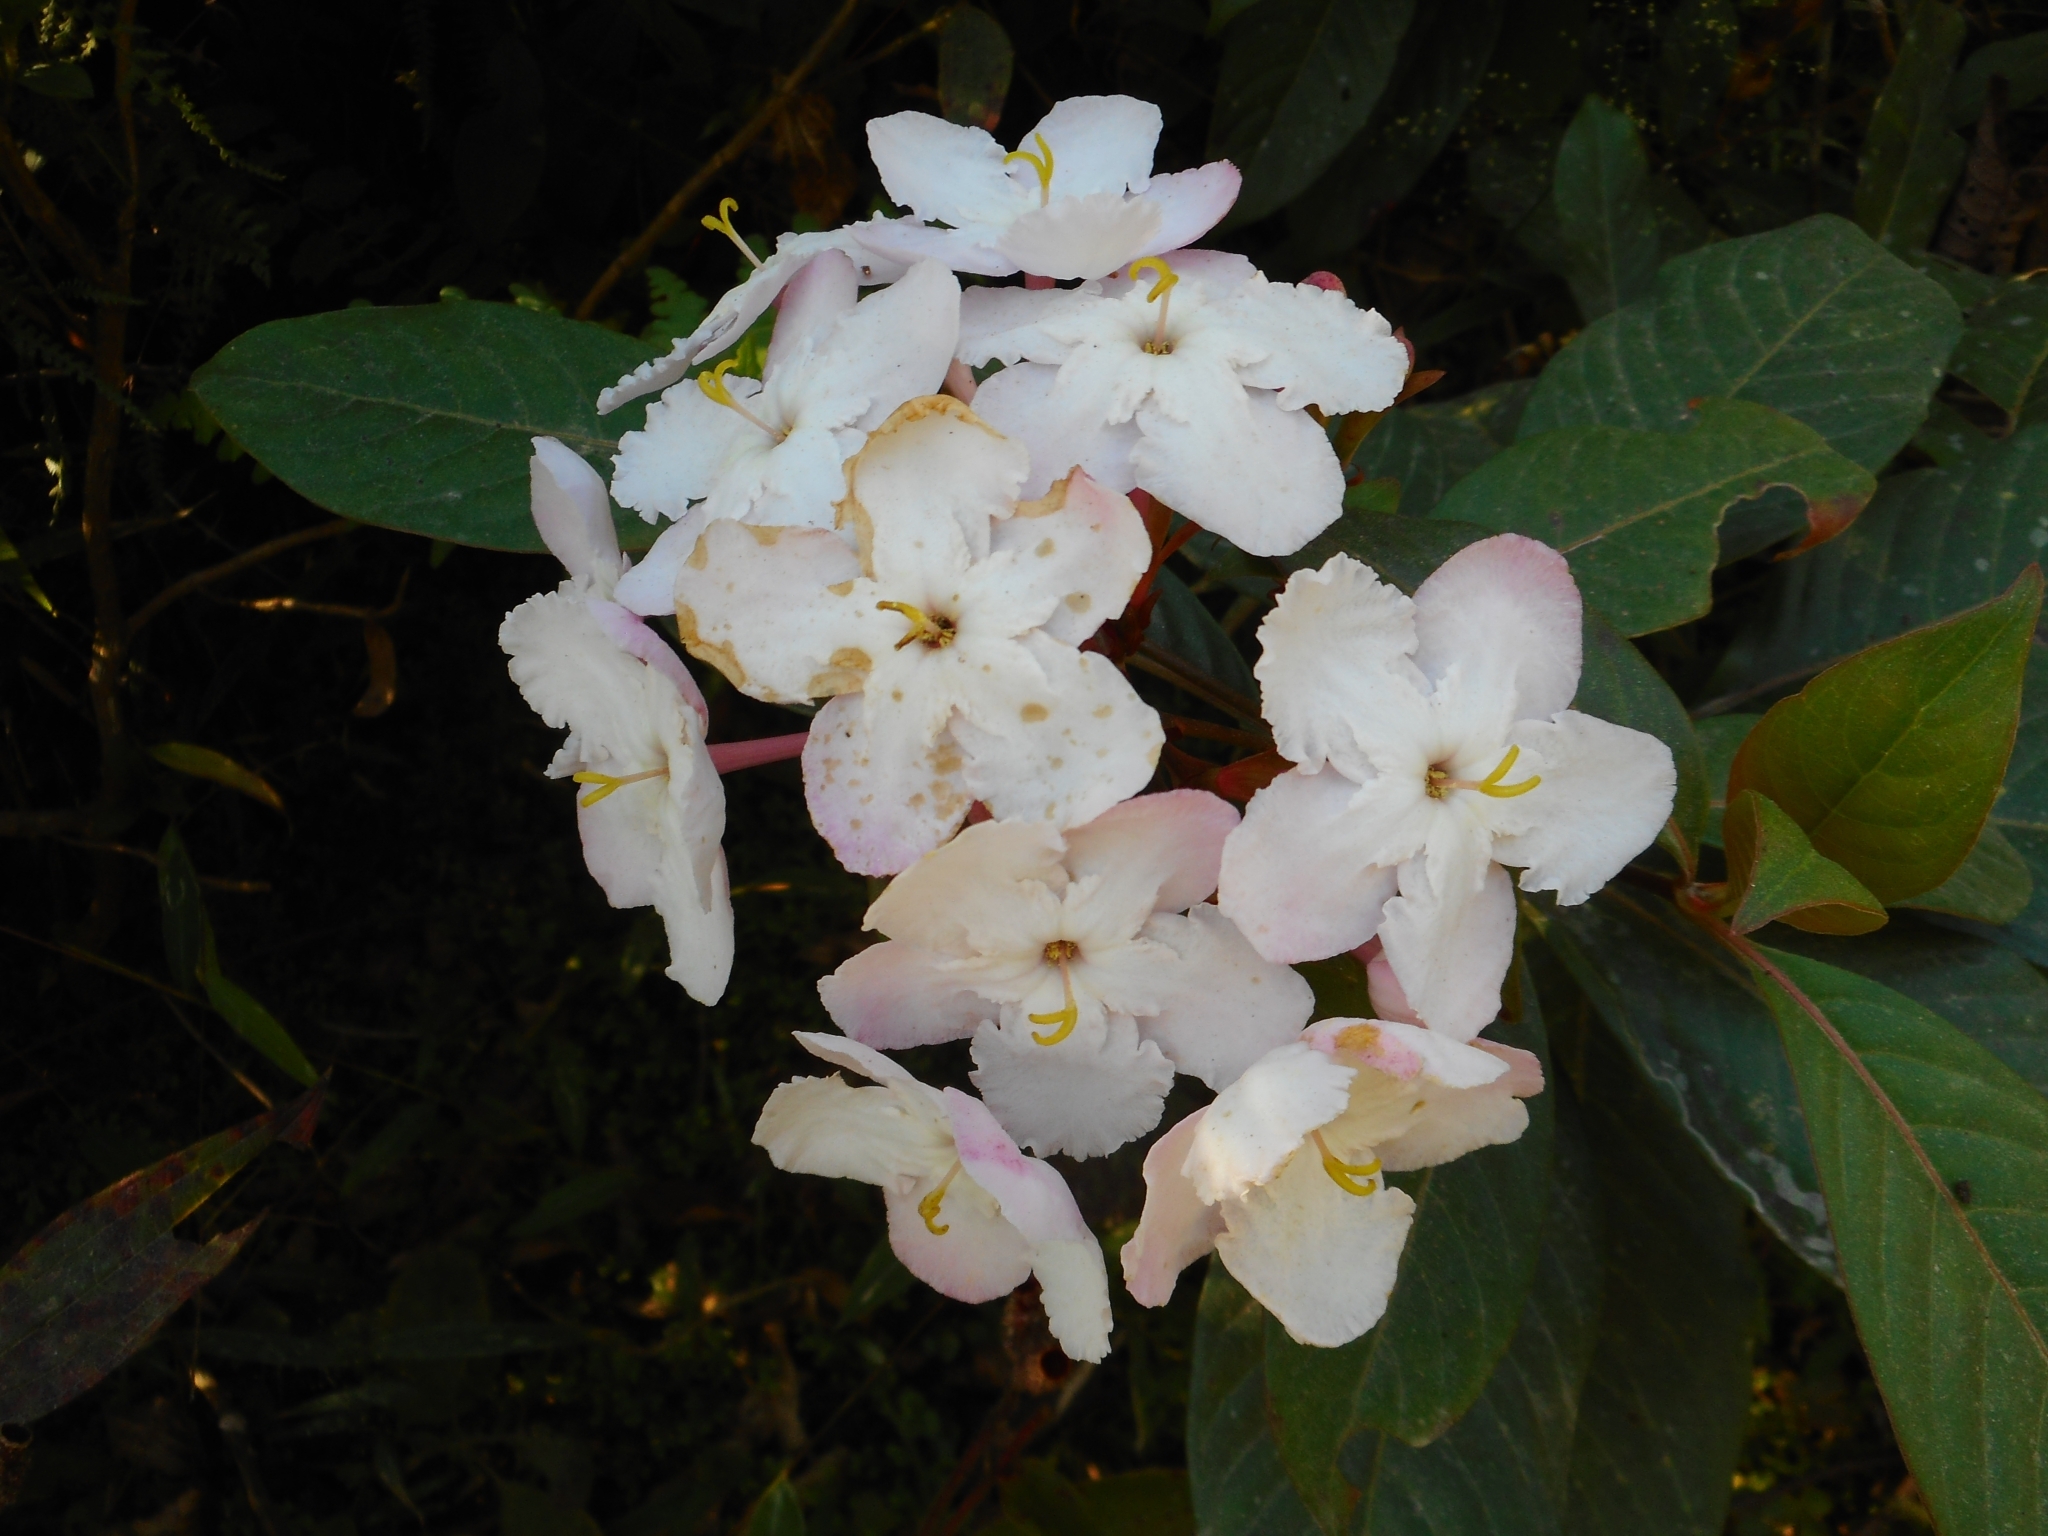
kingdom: Plantae
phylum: Tracheophyta
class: Magnoliopsida
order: Gentianales
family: Rubiaceae
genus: Luculia
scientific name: Luculia gratissima
